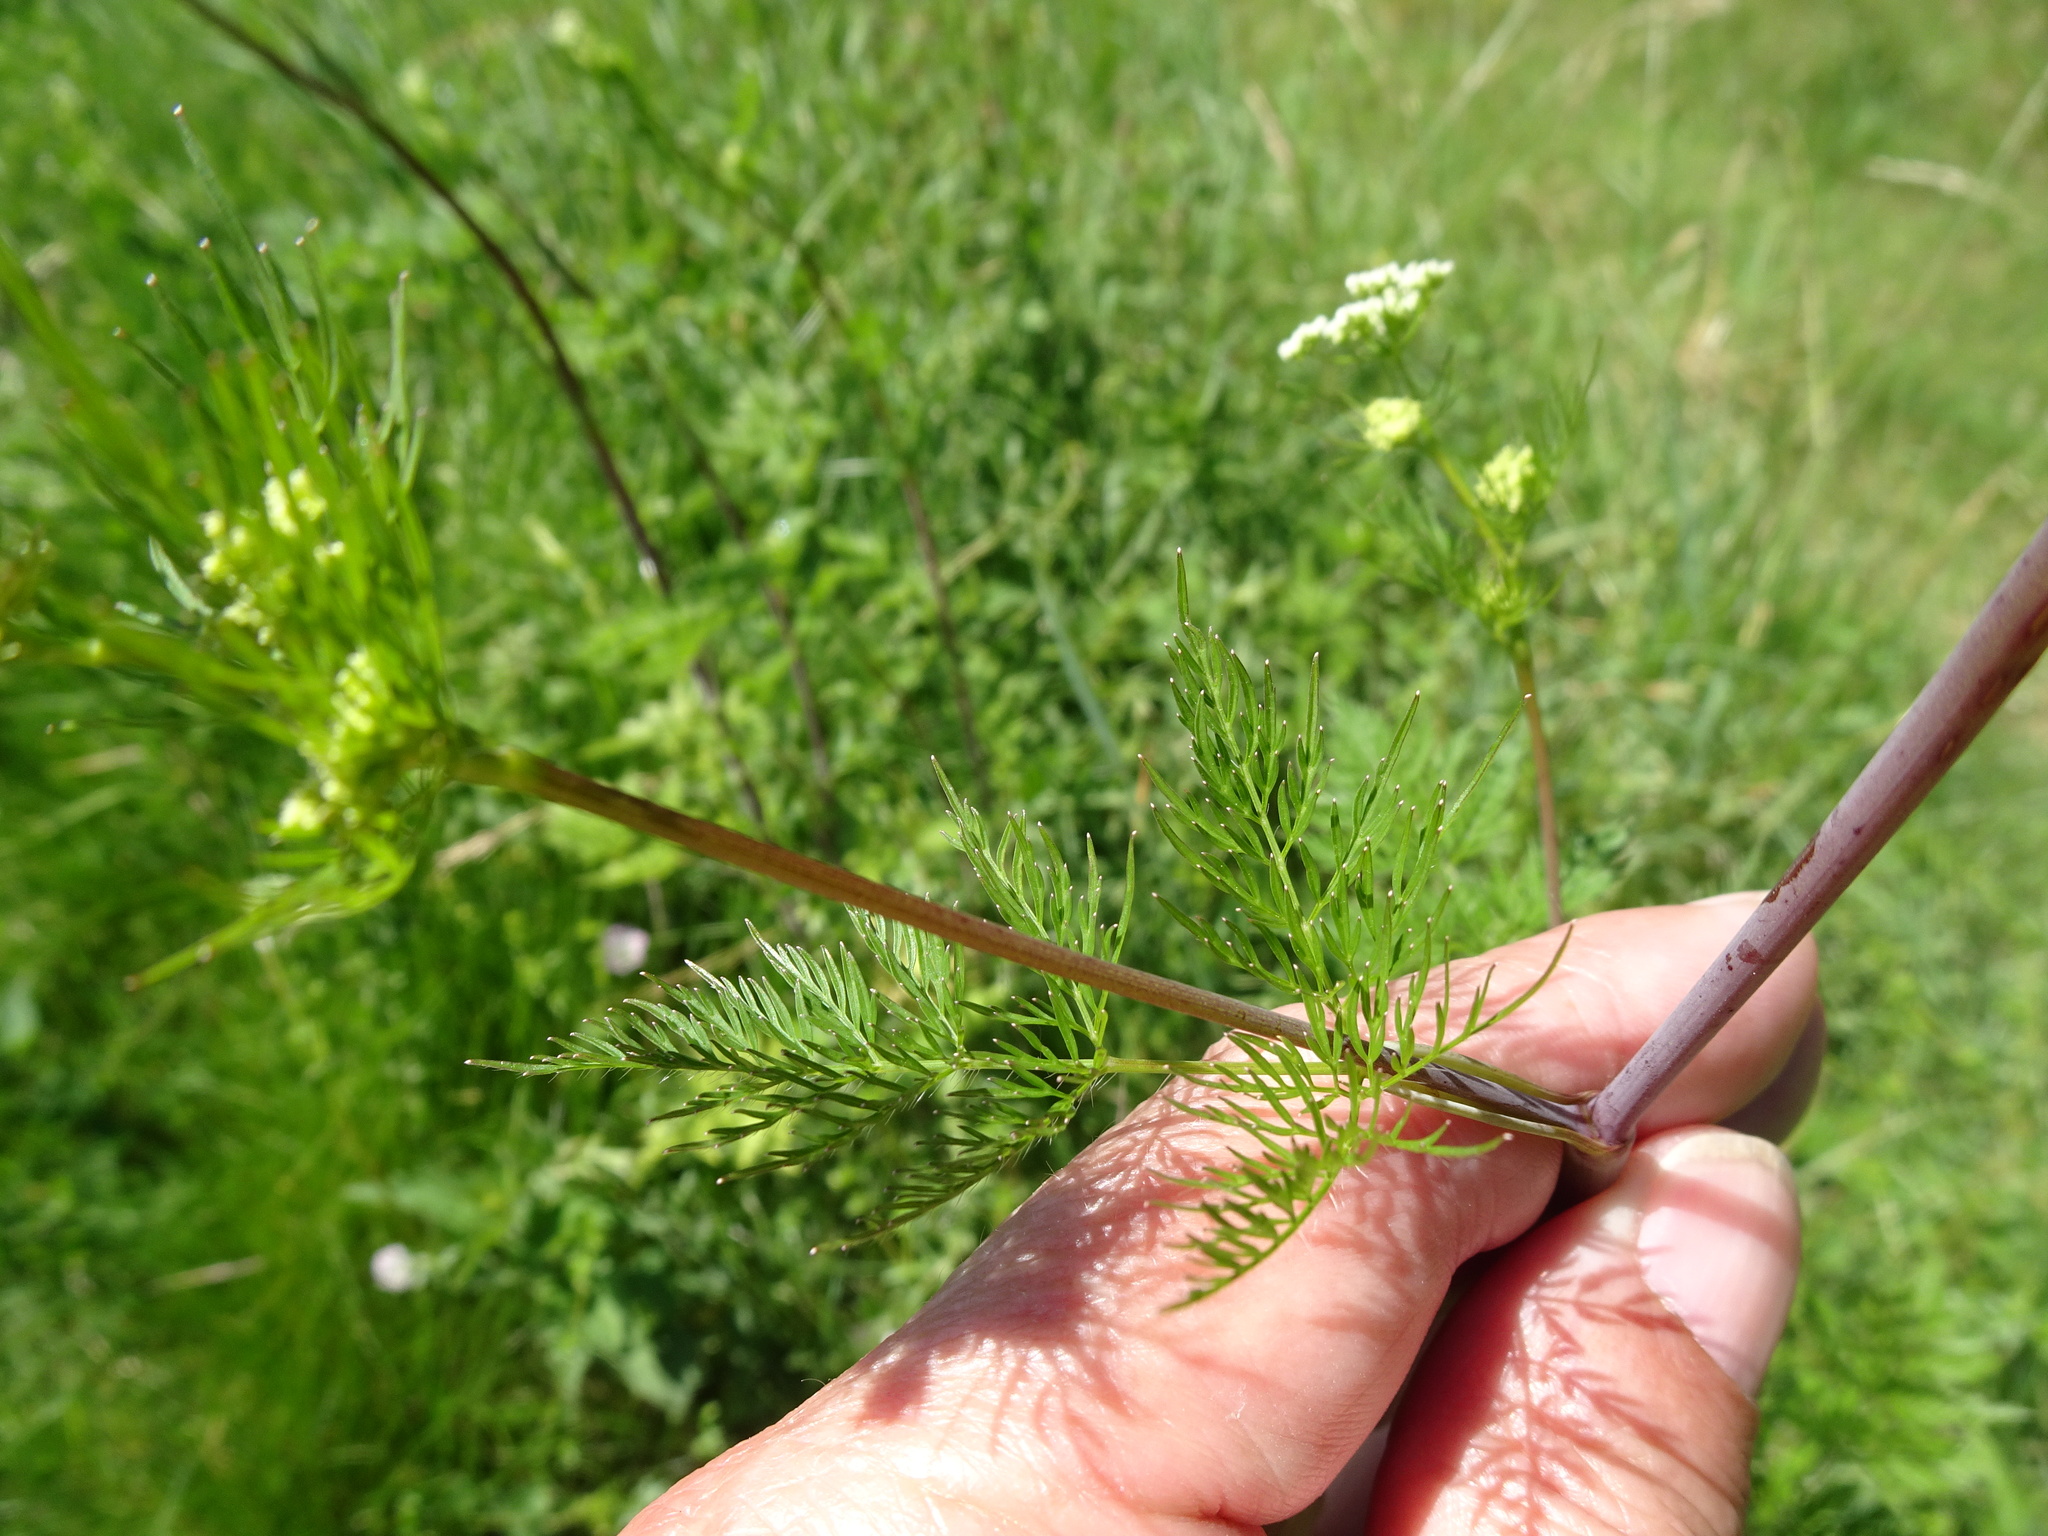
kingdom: Plantae
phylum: Tracheophyta
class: Magnoliopsida
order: Apiales
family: Apiaceae
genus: Chaerophyllum
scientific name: Chaerophyllum bulbosum
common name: Bulbous chervil
